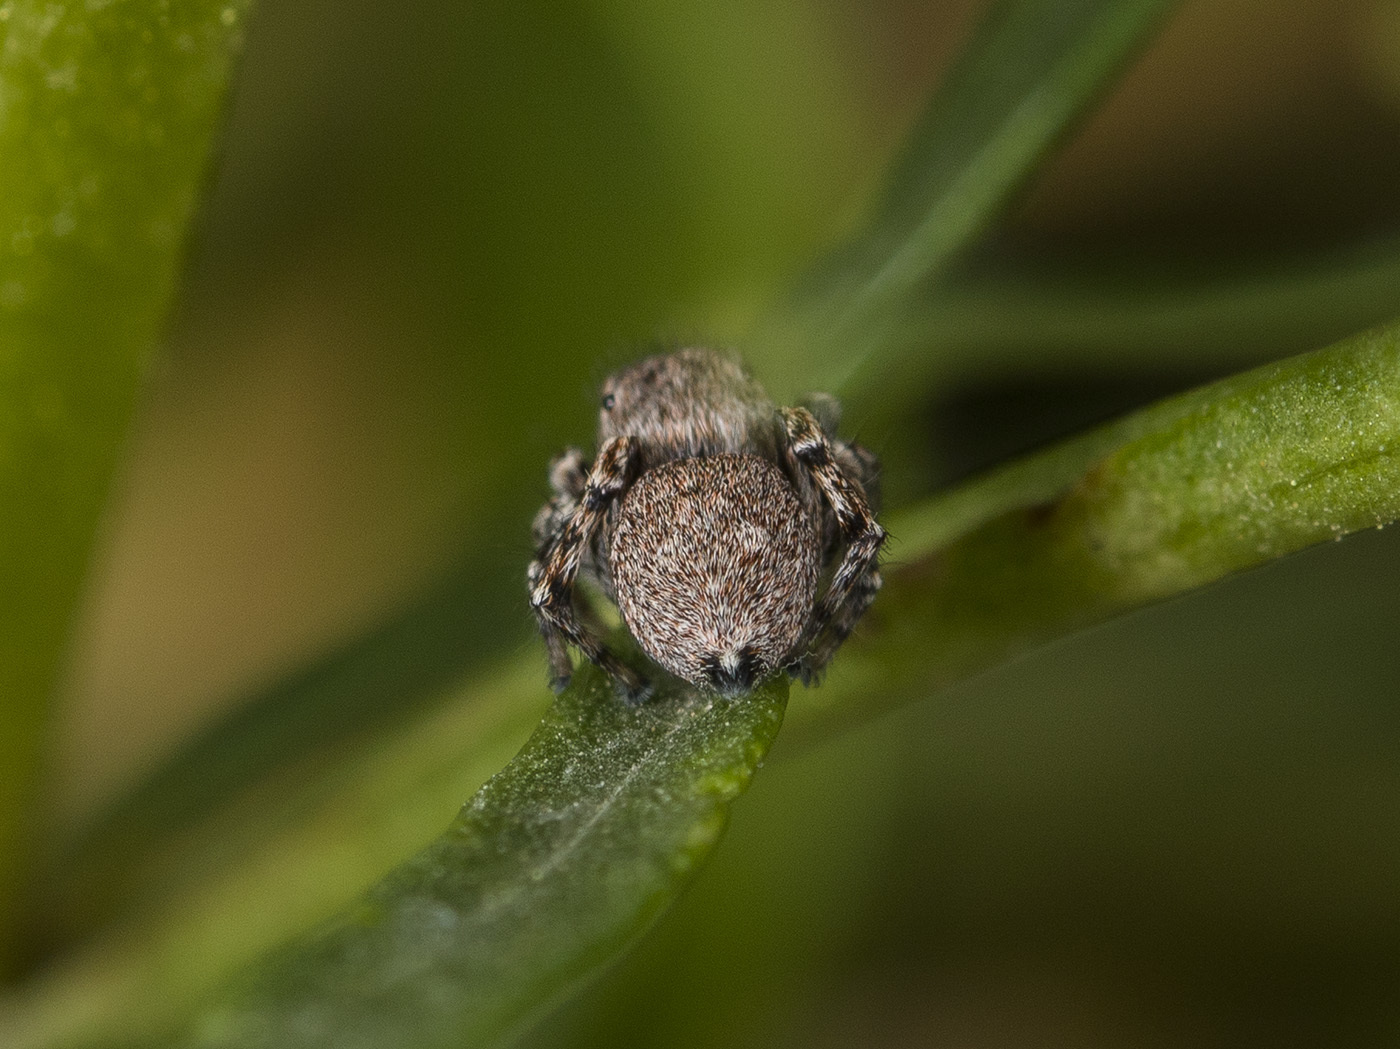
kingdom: Animalia
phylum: Arthropoda
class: Arachnida
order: Araneae
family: Salticidae
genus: Attulus
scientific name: Attulus mirandus
